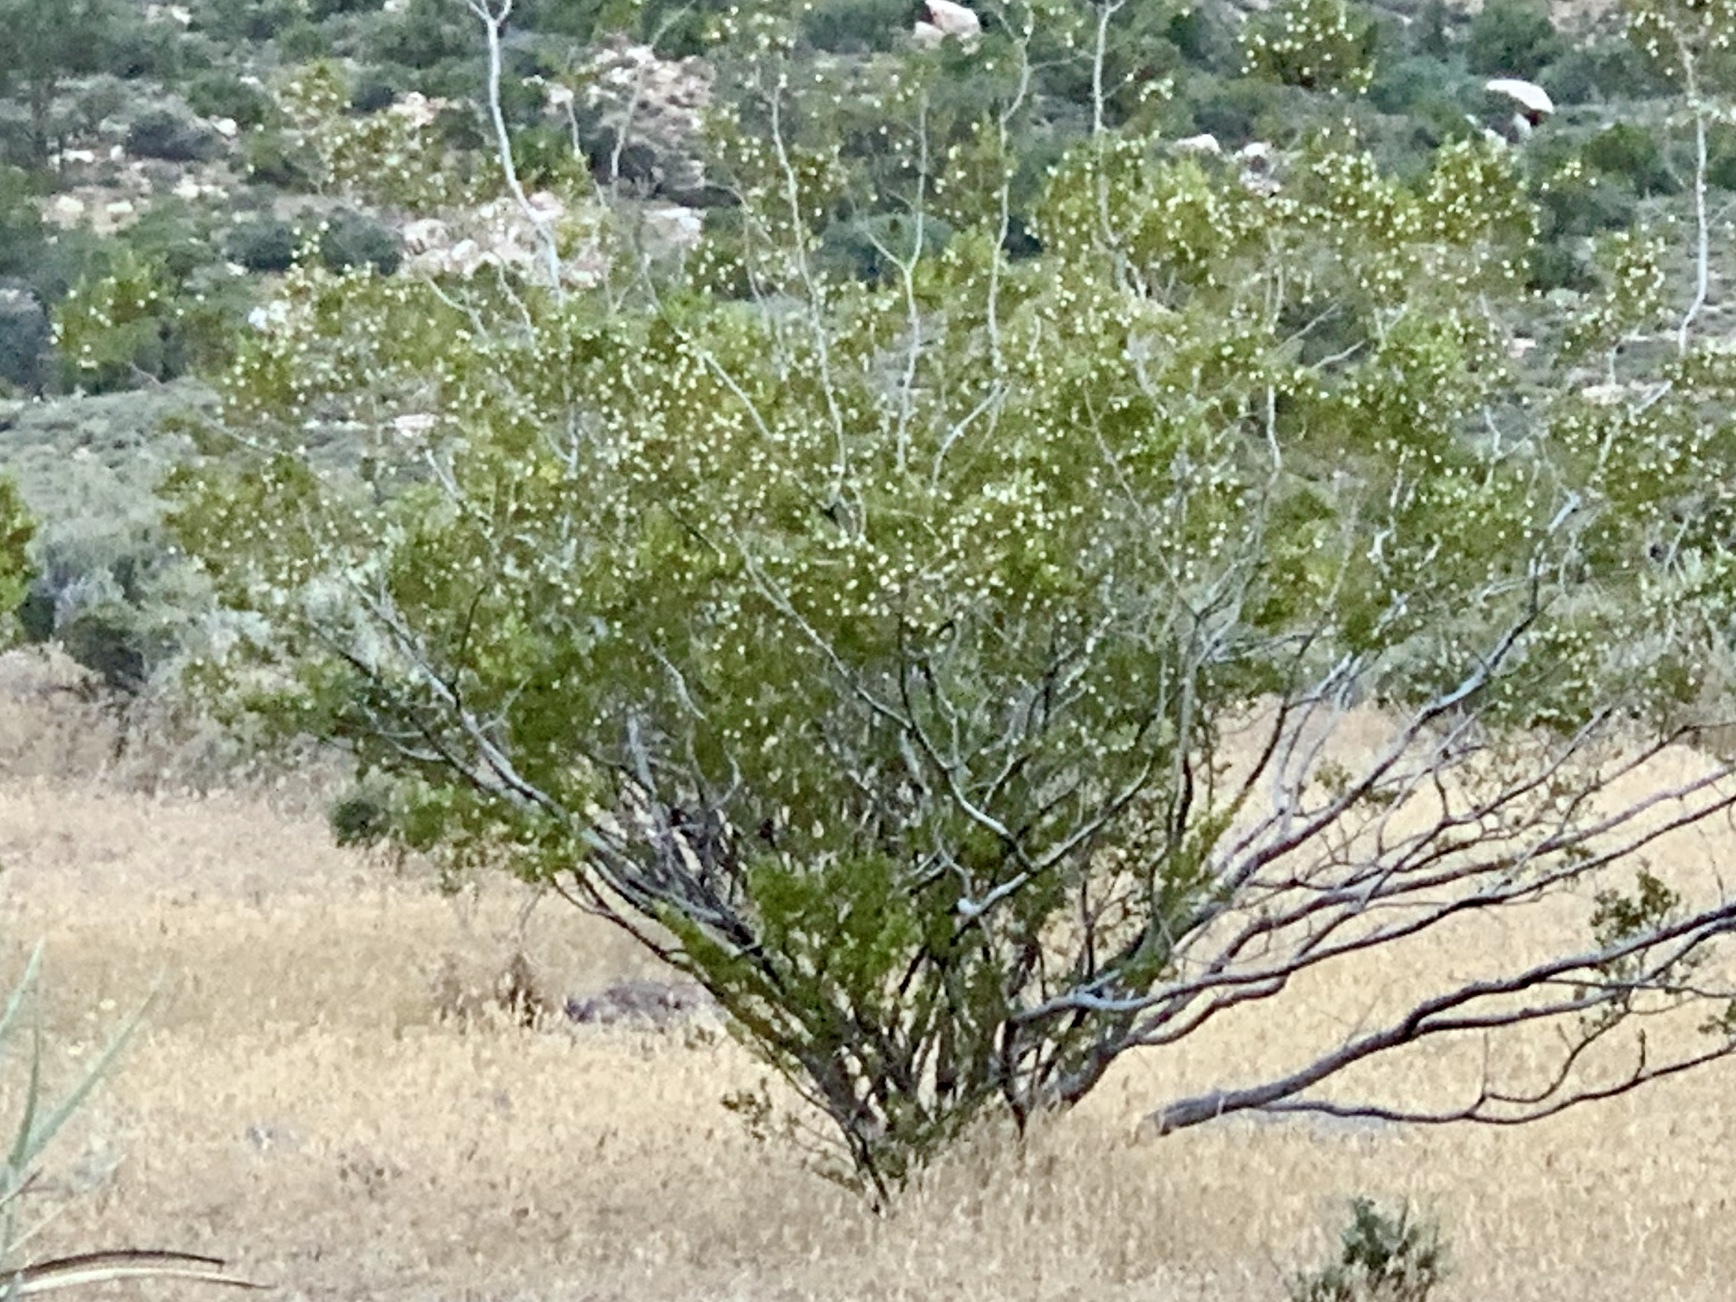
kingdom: Plantae
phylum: Tracheophyta
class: Magnoliopsida
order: Zygophyllales
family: Zygophyllaceae
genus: Larrea
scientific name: Larrea tridentata
